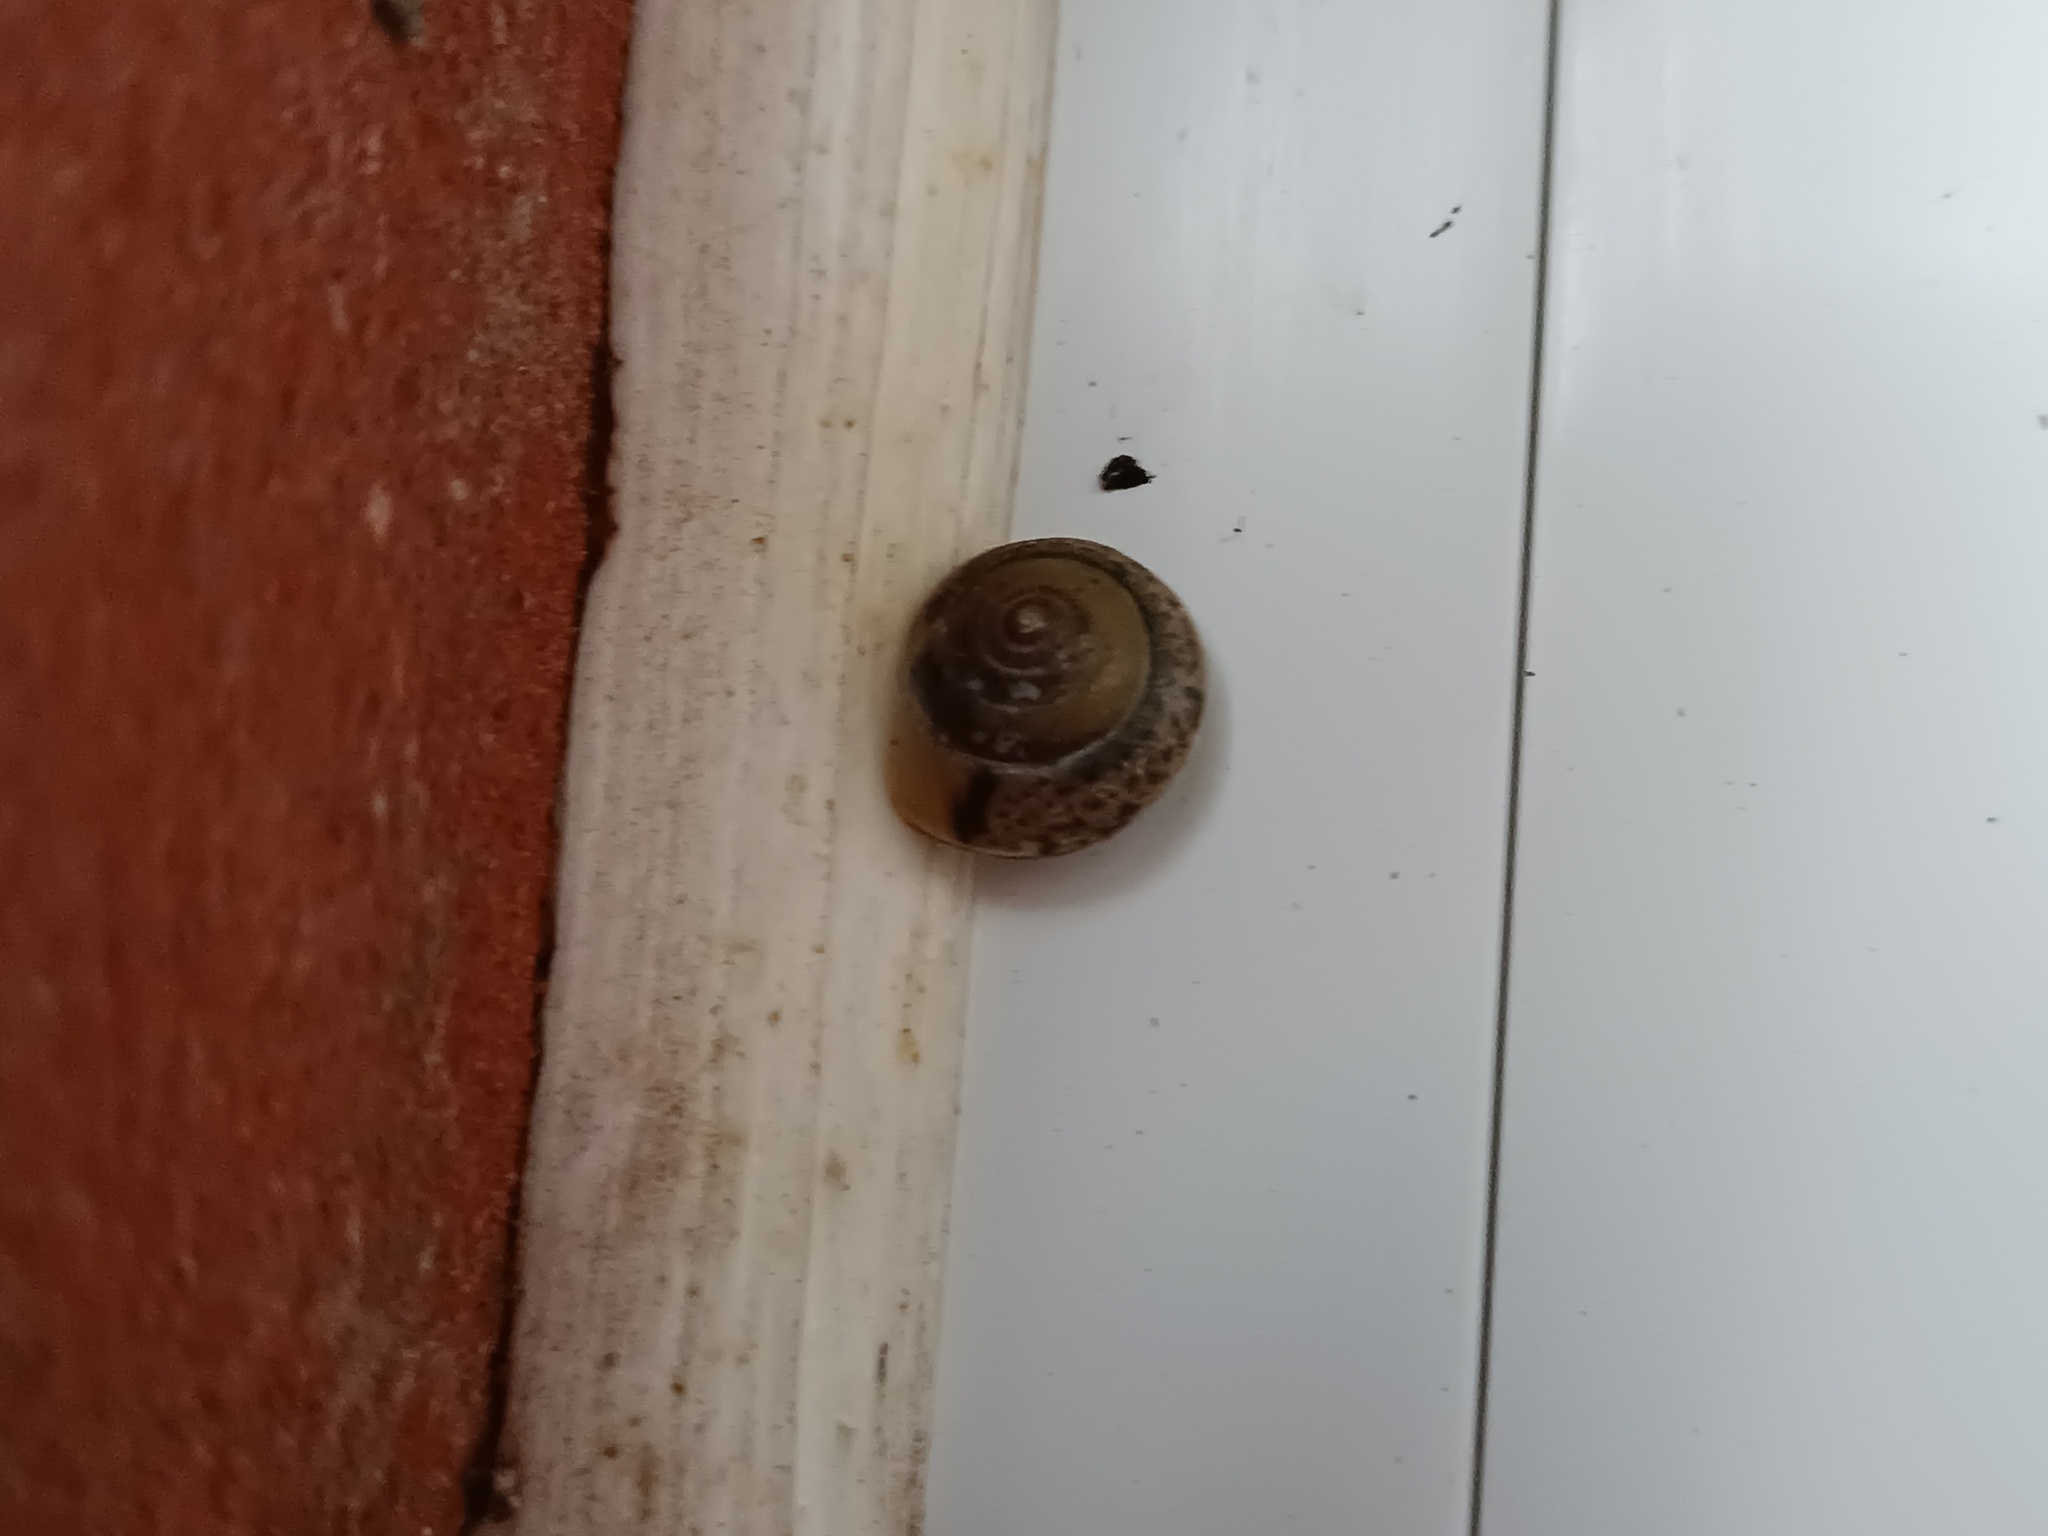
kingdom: Animalia
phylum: Mollusca
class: Gastropoda
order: Stylommatophora
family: Hygromiidae
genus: Hygromia
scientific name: Hygromia cinctella
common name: Girdled snail
